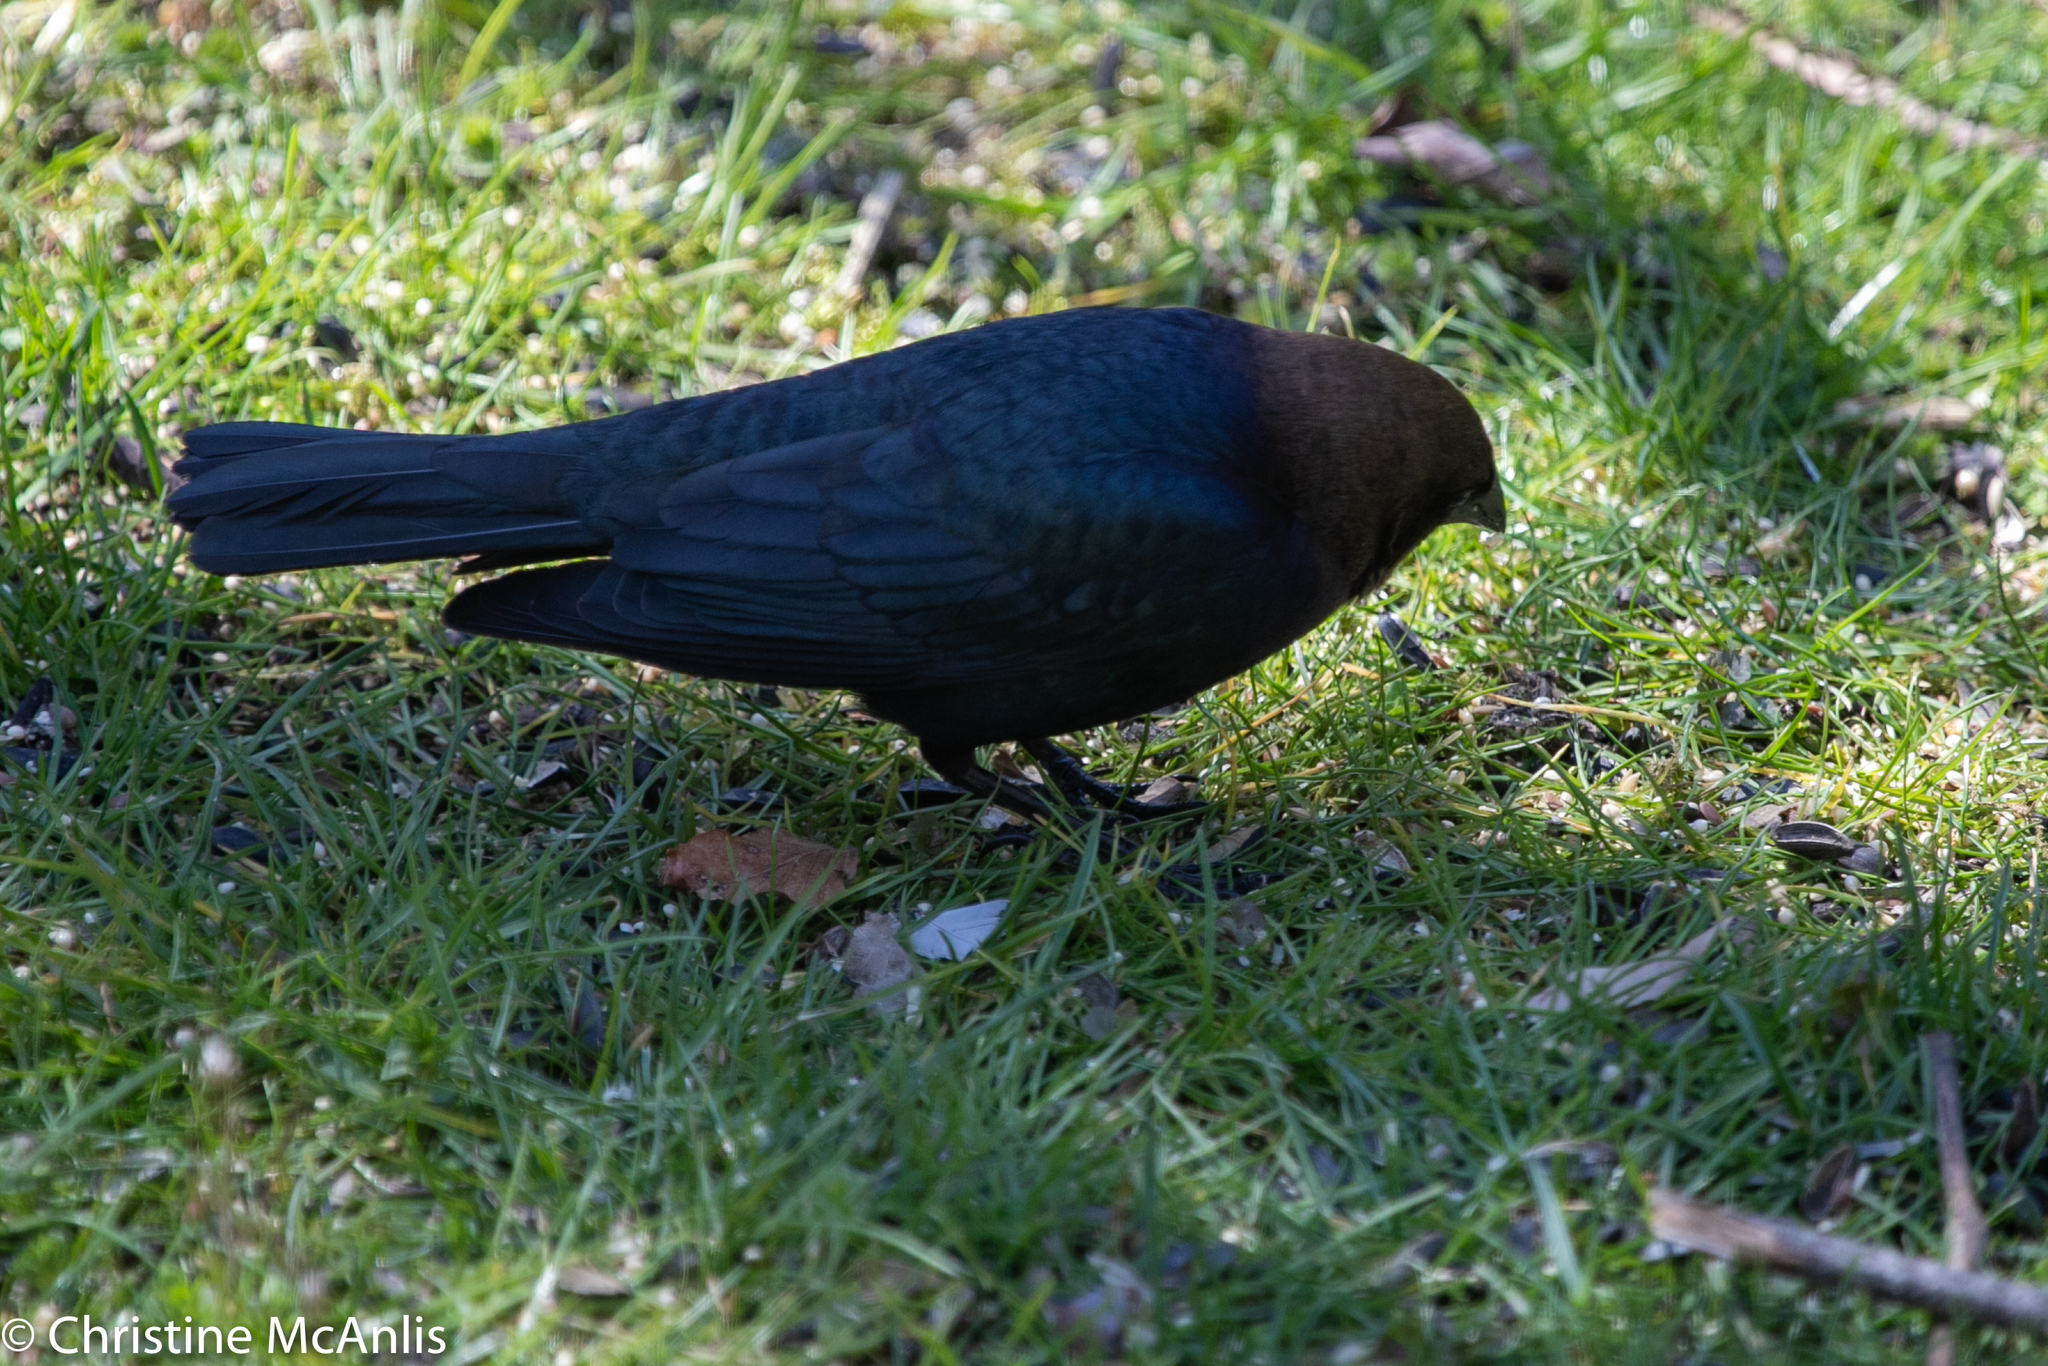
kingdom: Animalia
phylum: Chordata
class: Aves
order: Passeriformes
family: Icteridae
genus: Molothrus
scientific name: Molothrus ater
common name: Brown-headed cowbird
